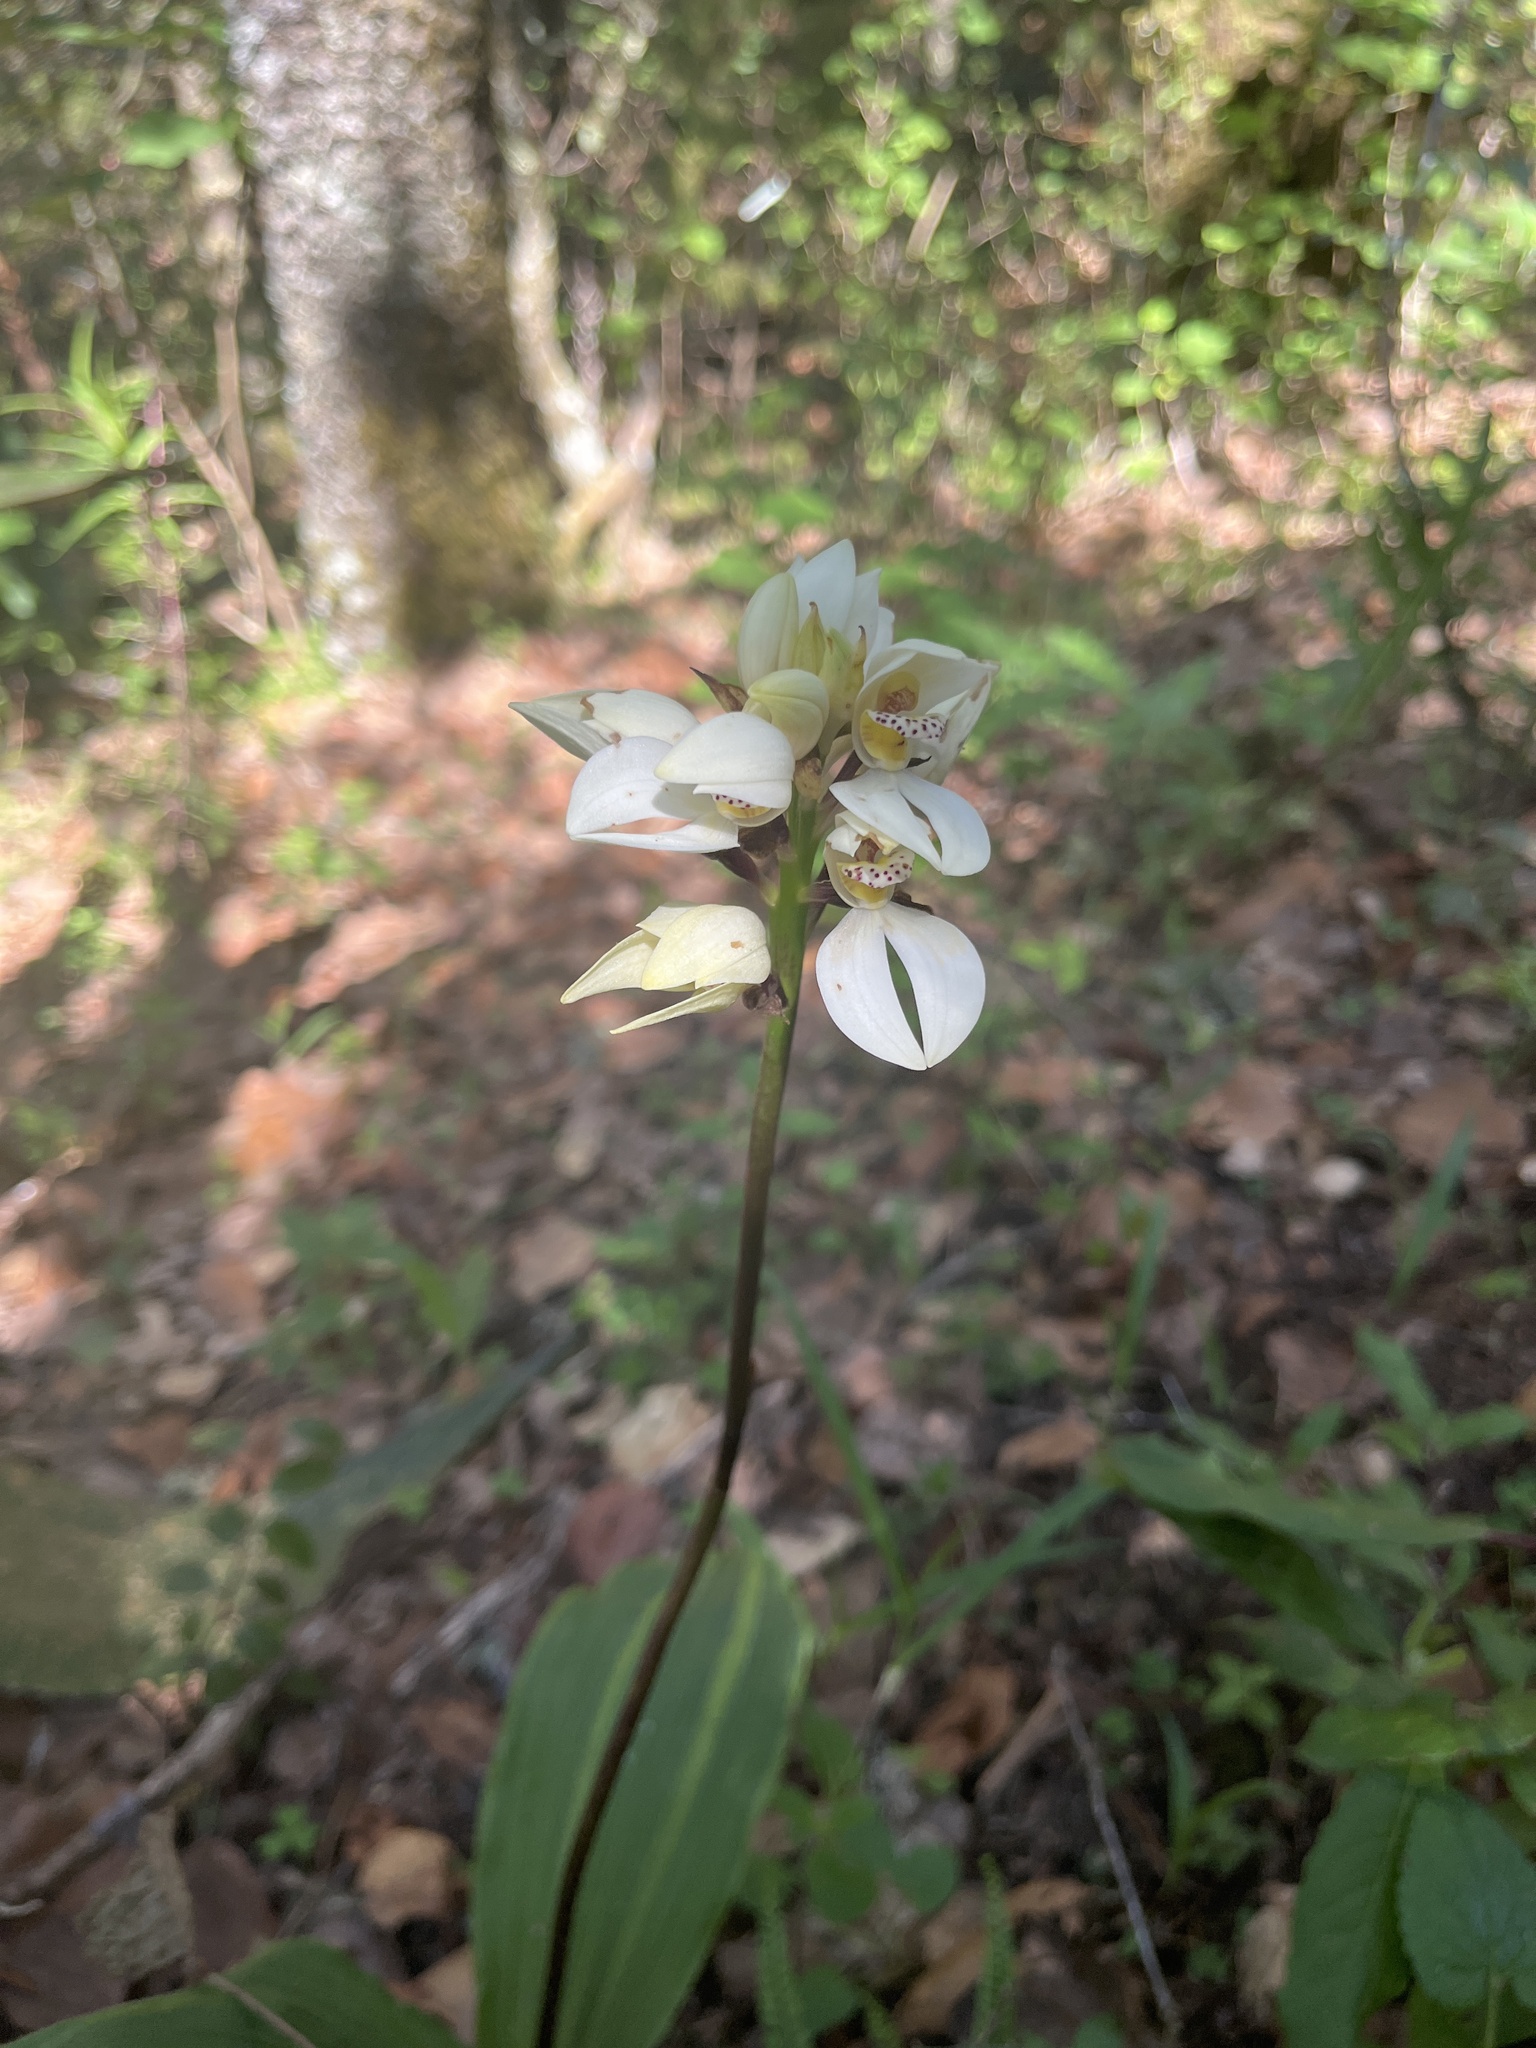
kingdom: Plantae
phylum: Tracheophyta
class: Liliopsida
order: Asparagales
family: Orchidaceae
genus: Govenia
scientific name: Govenia capitata
